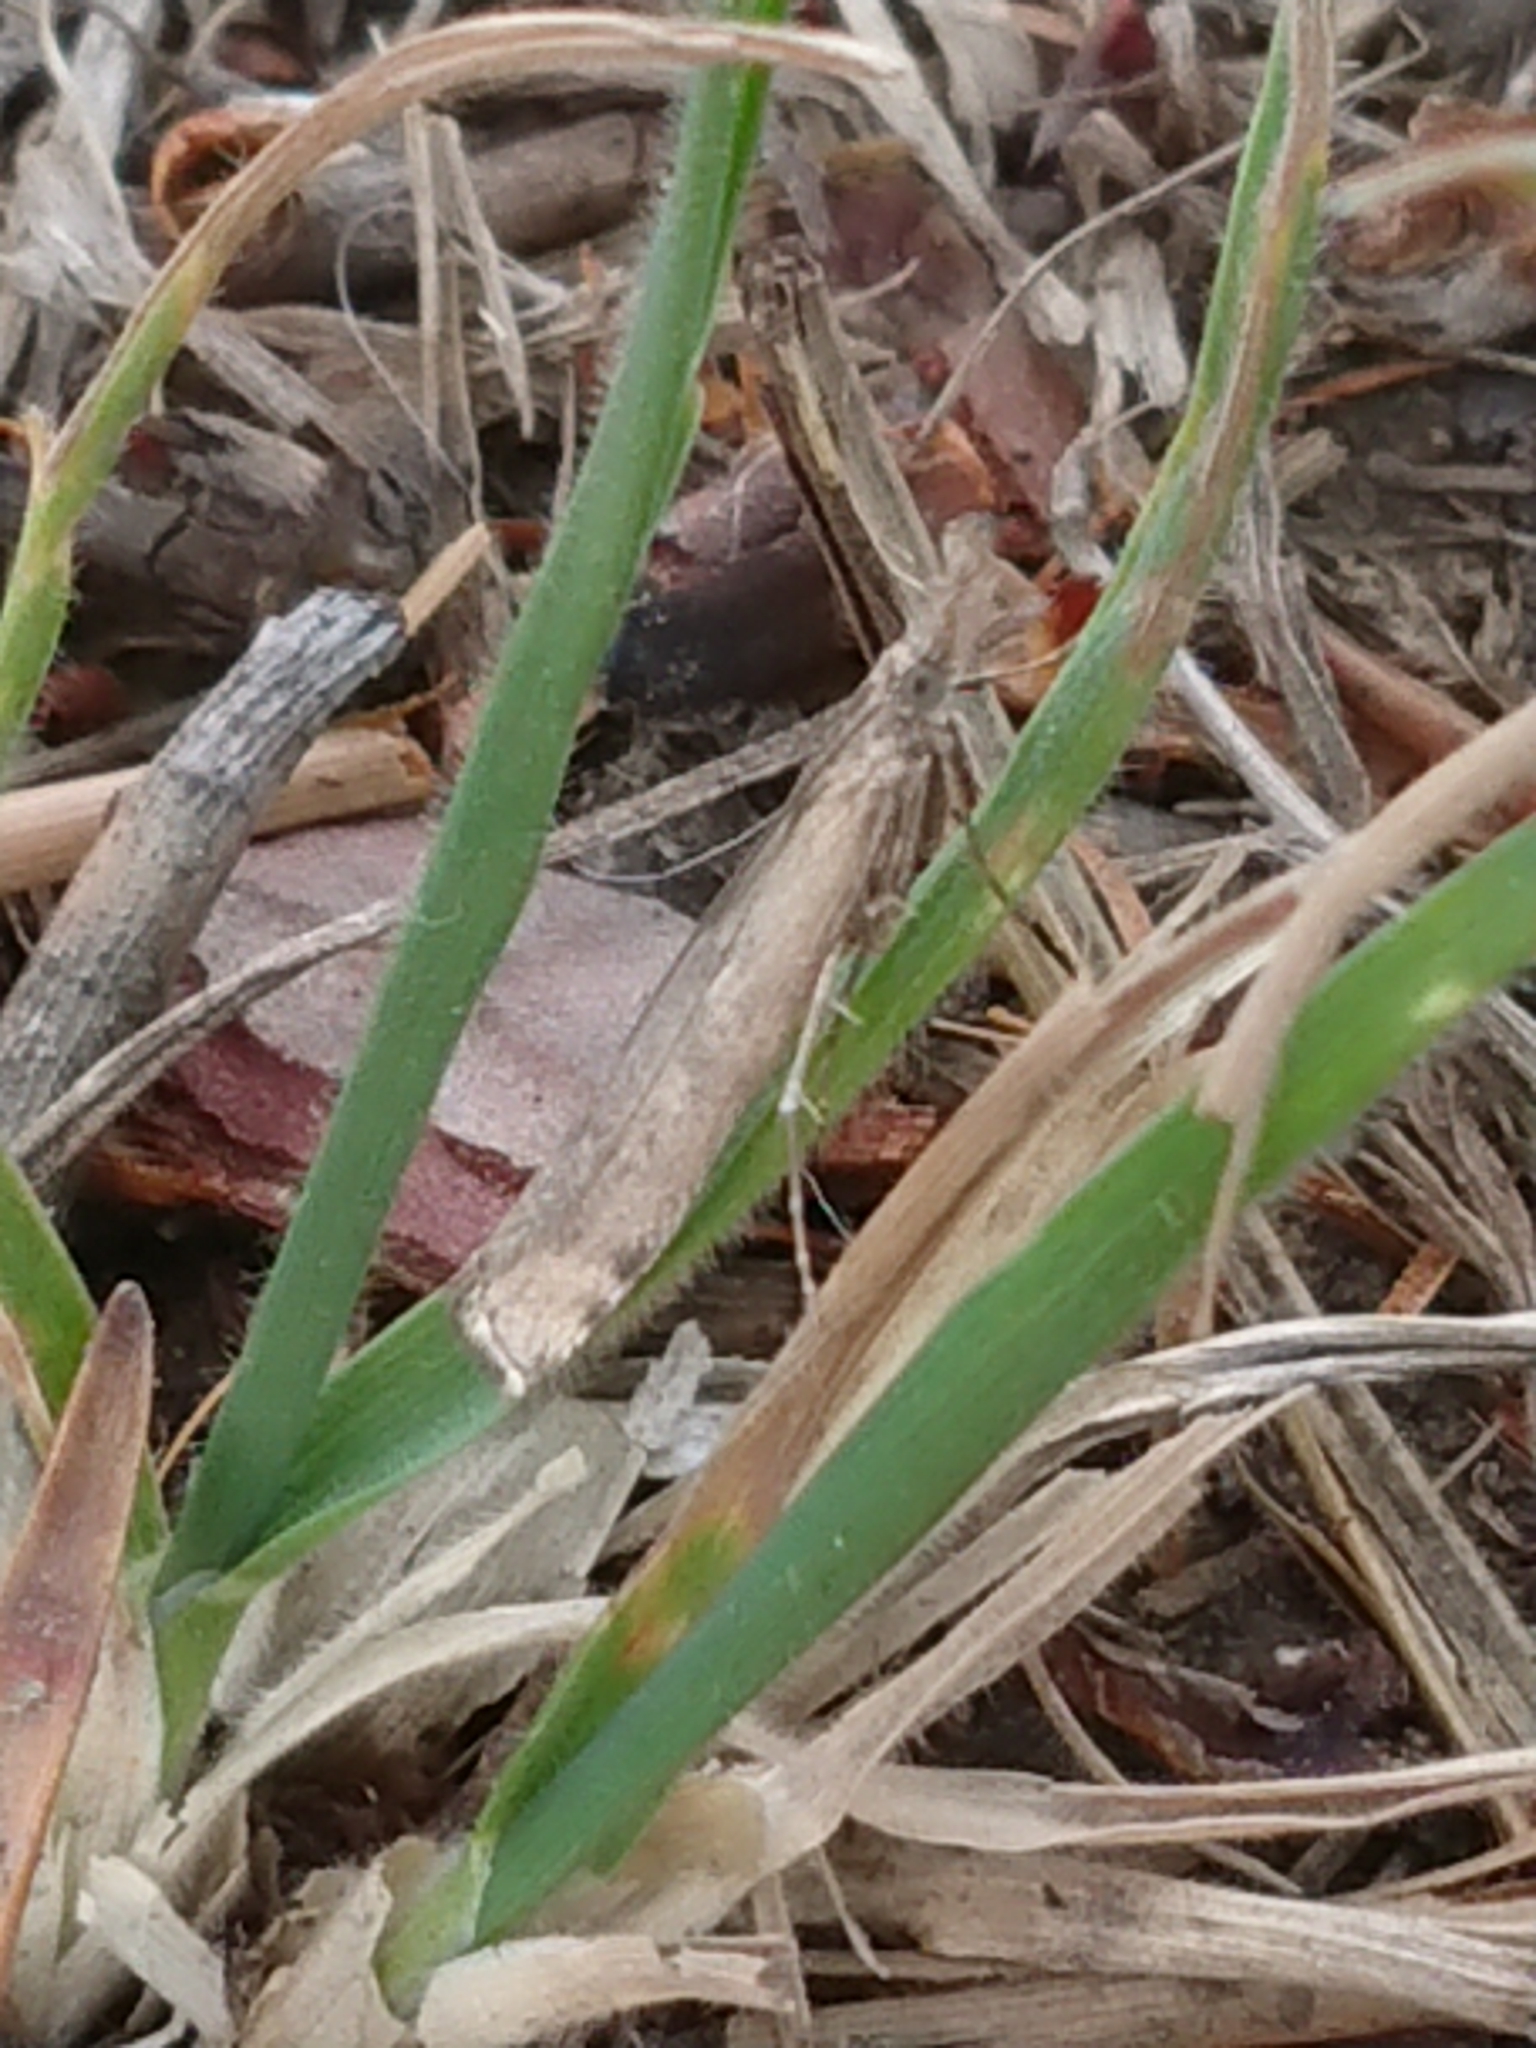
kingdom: Animalia
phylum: Arthropoda
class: Insecta
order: Lepidoptera
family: Crambidae
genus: Orocrambus
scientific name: Orocrambus cyclopicus
